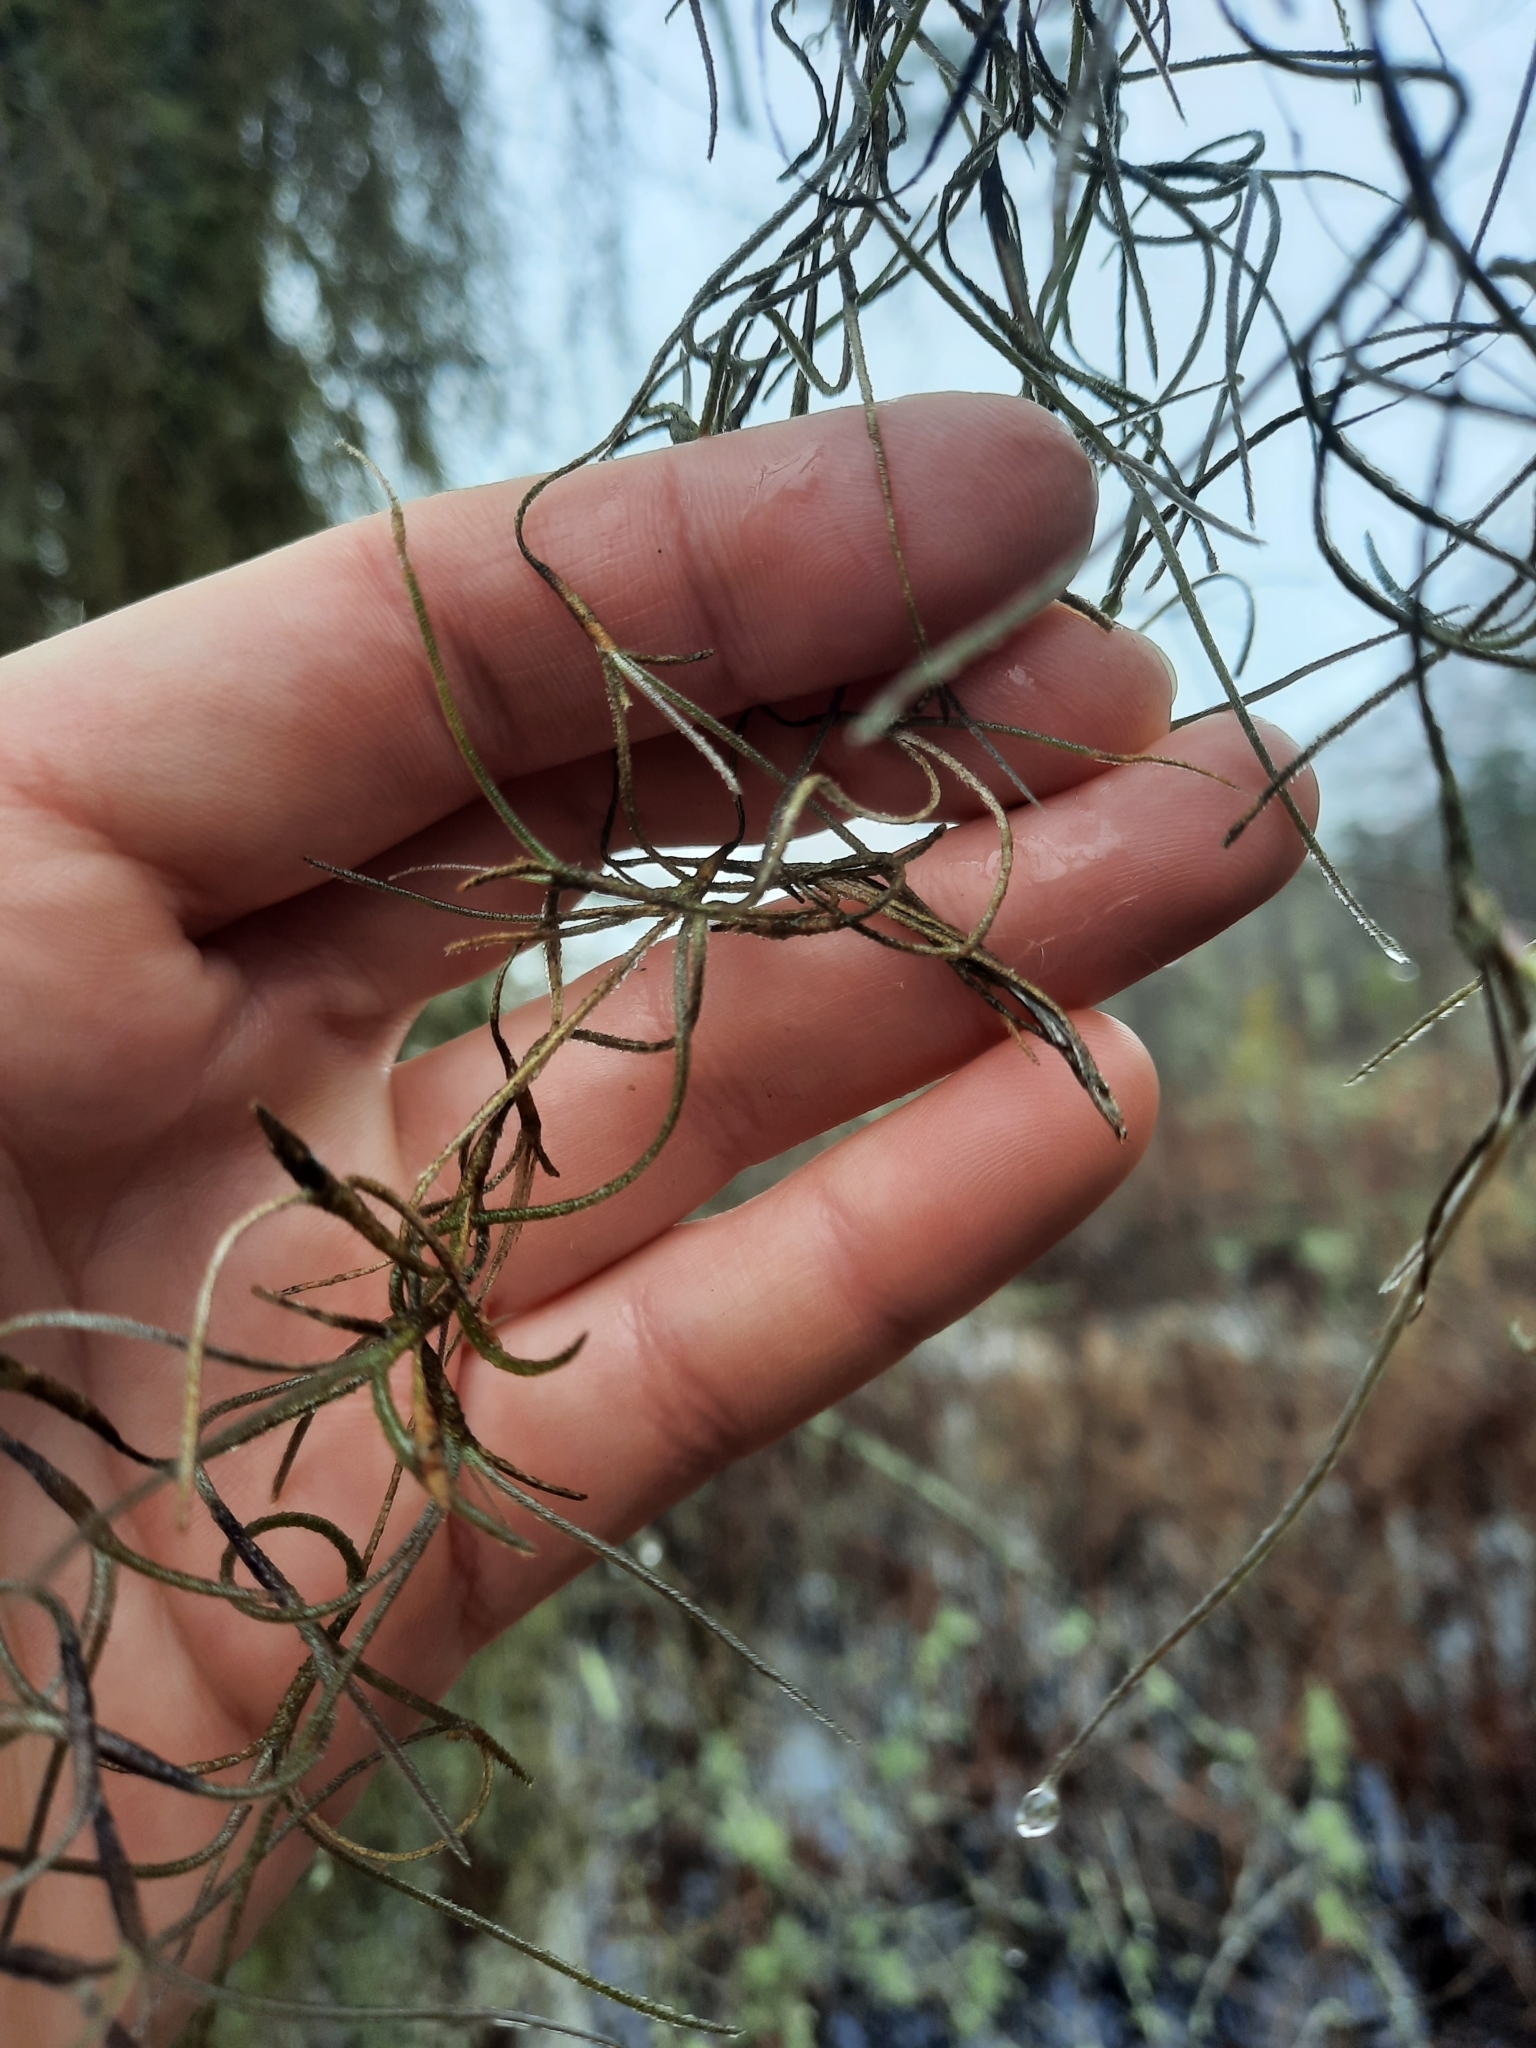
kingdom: Plantae
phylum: Tracheophyta
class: Liliopsida
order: Poales
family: Bromeliaceae
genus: Tillandsia
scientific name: Tillandsia usneoides
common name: Spanish moss
